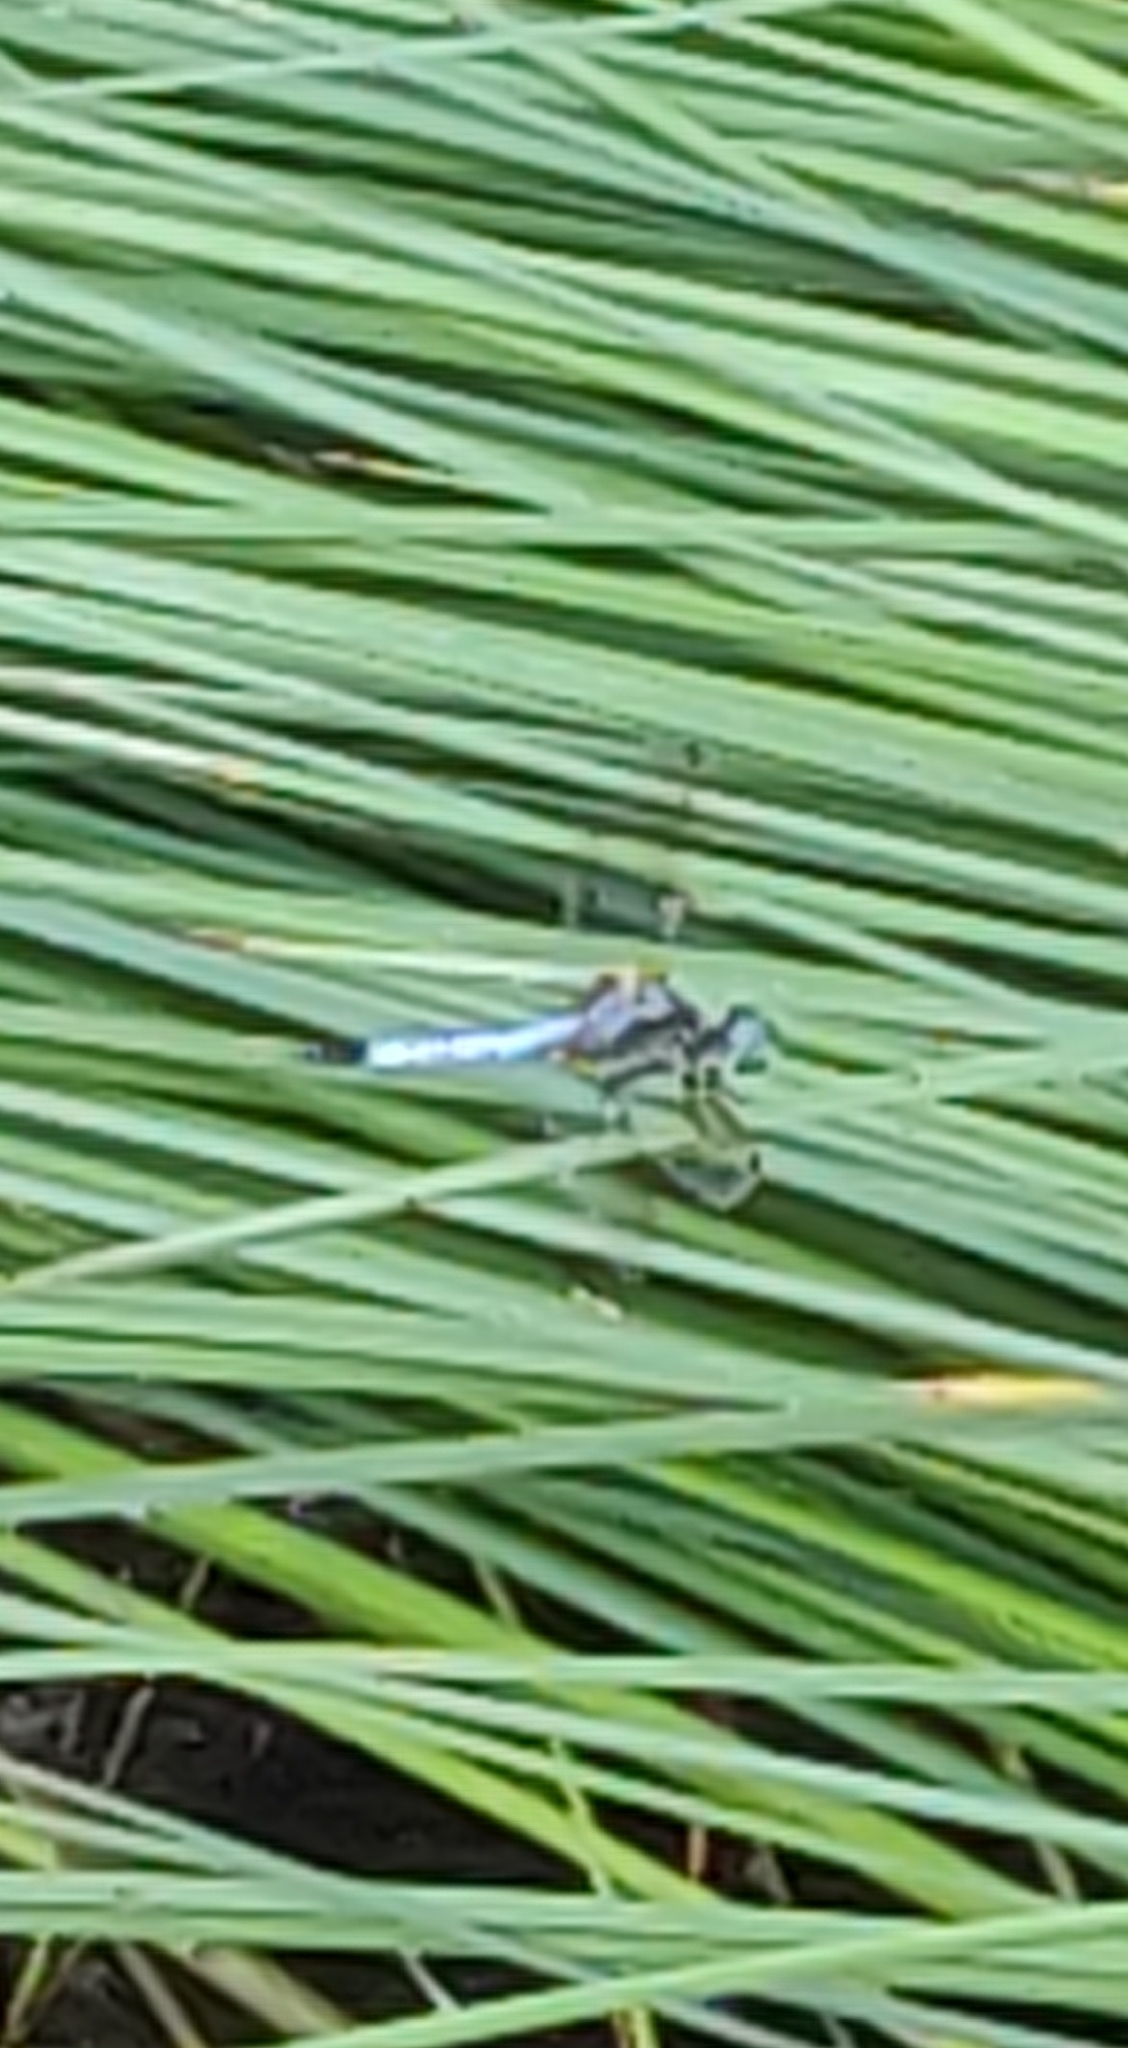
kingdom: Animalia
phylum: Arthropoda
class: Insecta
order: Odonata
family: Libellulidae
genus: Pachydiplax
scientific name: Pachydiplax longipennis
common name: Blue dasher
